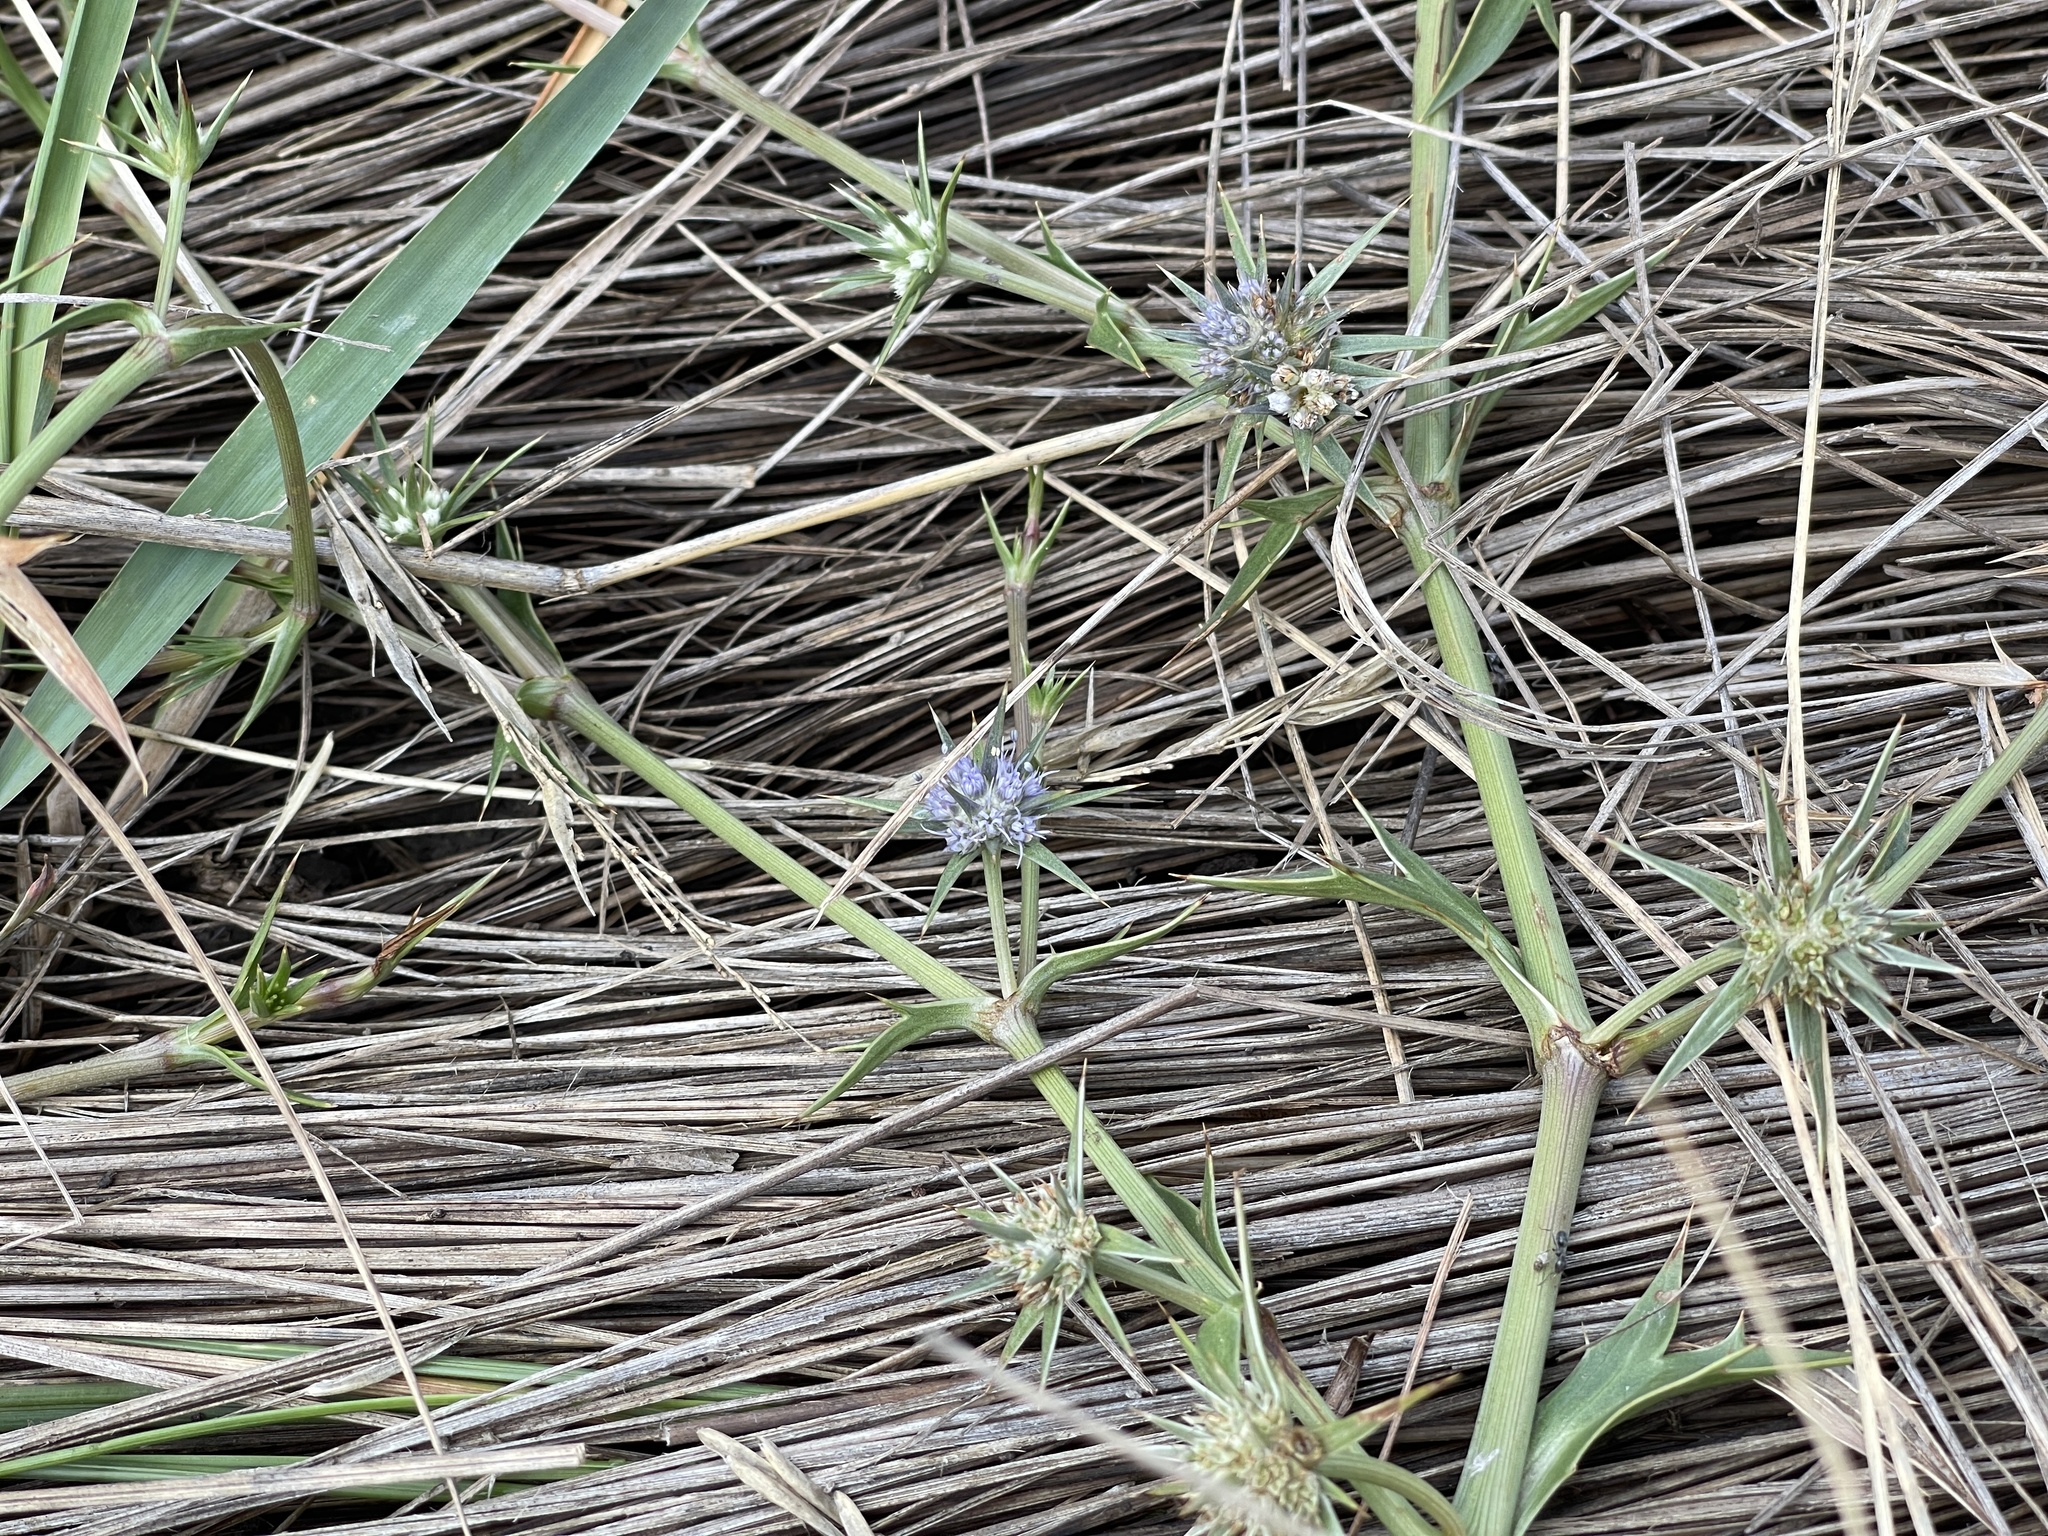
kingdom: Plantae
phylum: Tracheophyta
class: Magnoliopsida
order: Apiales
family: Apiaceae
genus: Eryngium
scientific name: Eryngium vesiculosum
